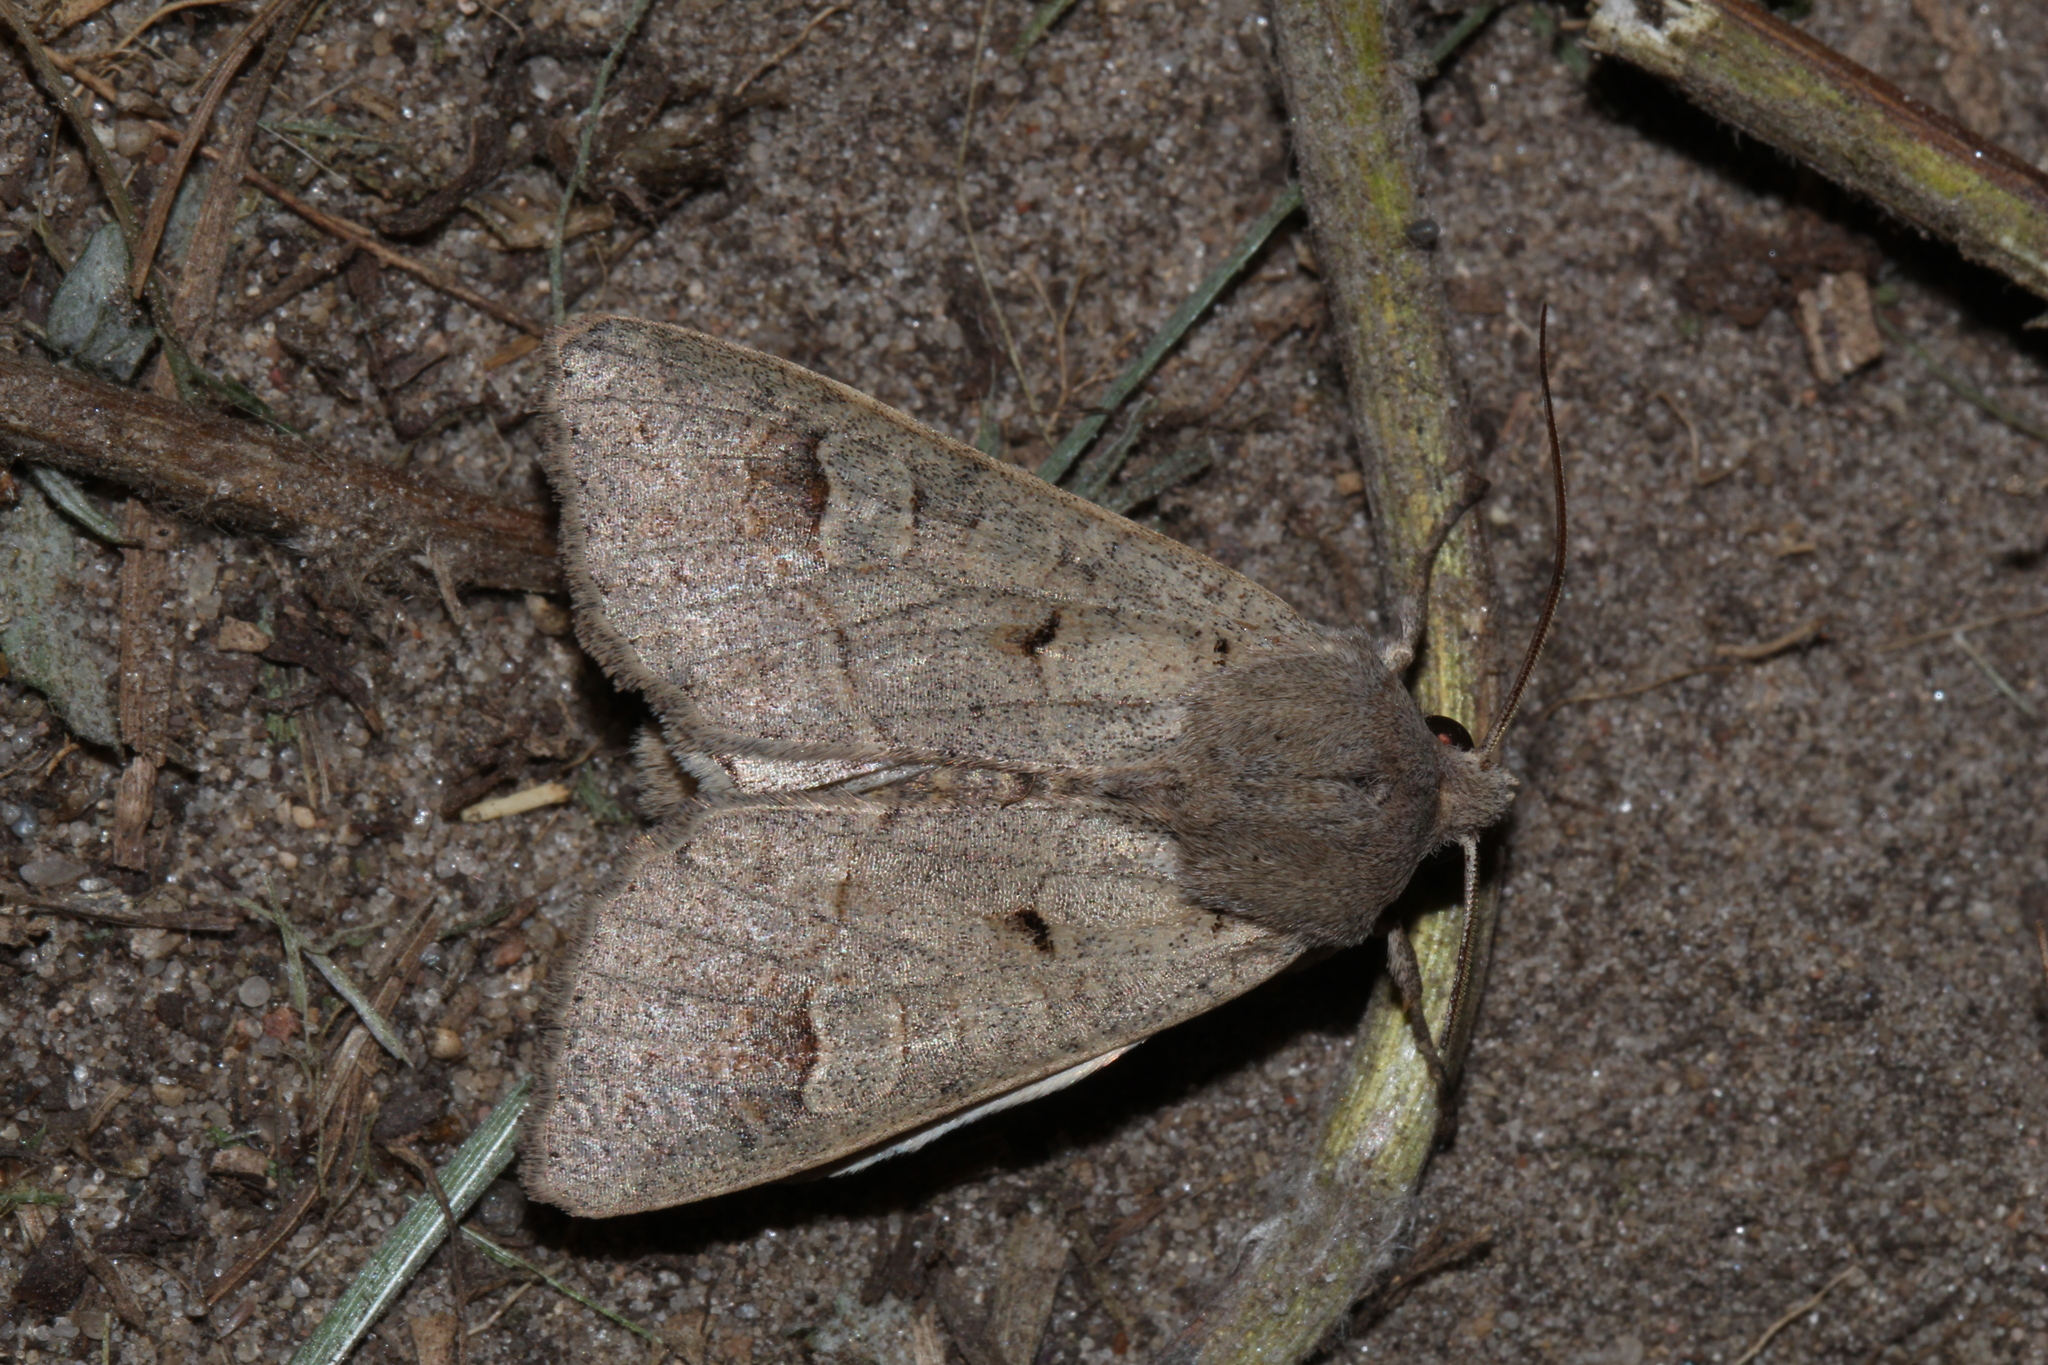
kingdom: Animalia
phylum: Arthropoda
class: Insecta
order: Lepidoptera
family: Noctuidae
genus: Ammoconia
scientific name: Ammoconia caecimacula
